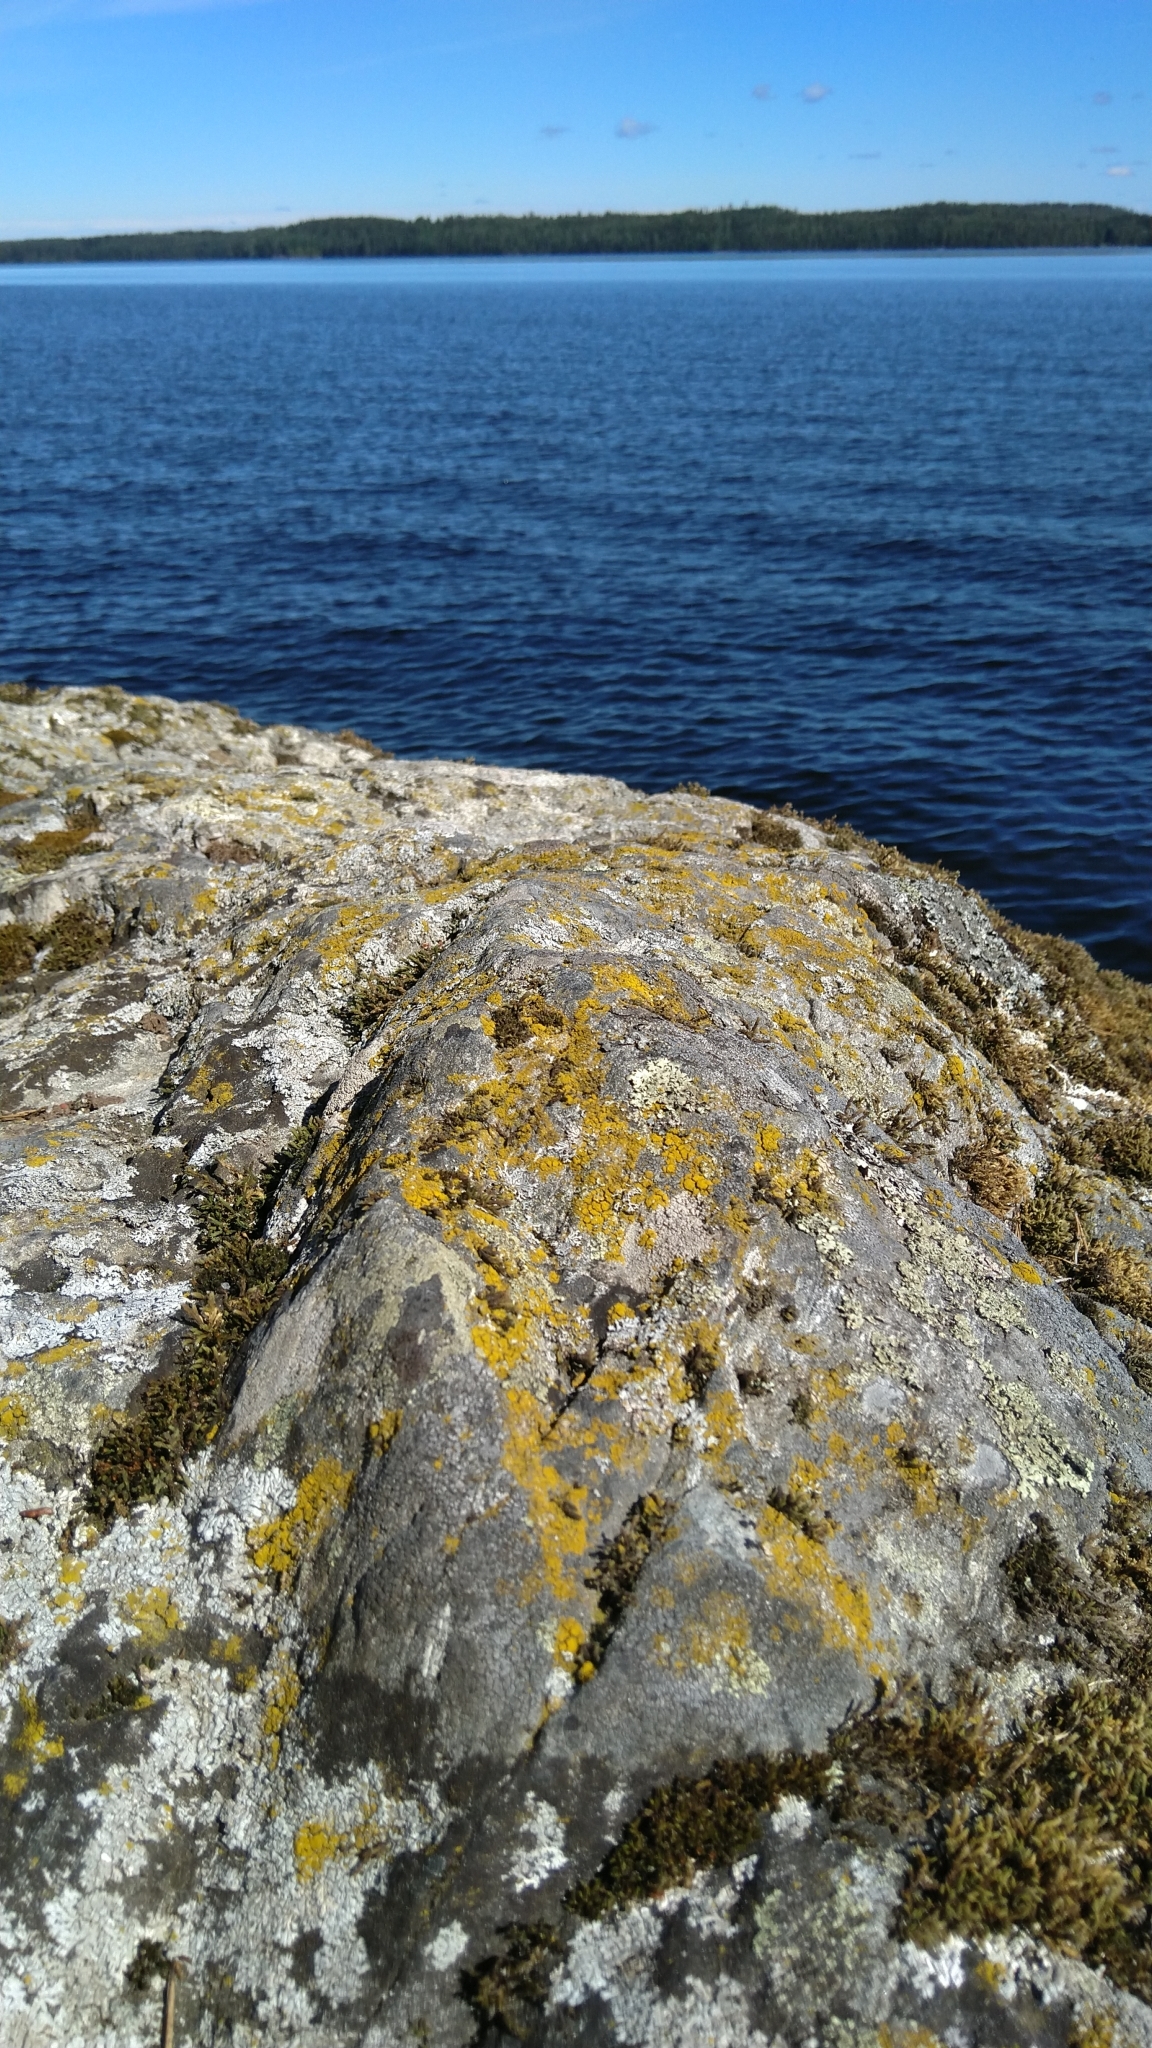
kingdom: Fungi
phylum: Ascomycota
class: Candelariomycetes
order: Candelariales
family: Candelariaceae
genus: Candelariella
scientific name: Candelariella coralliza
